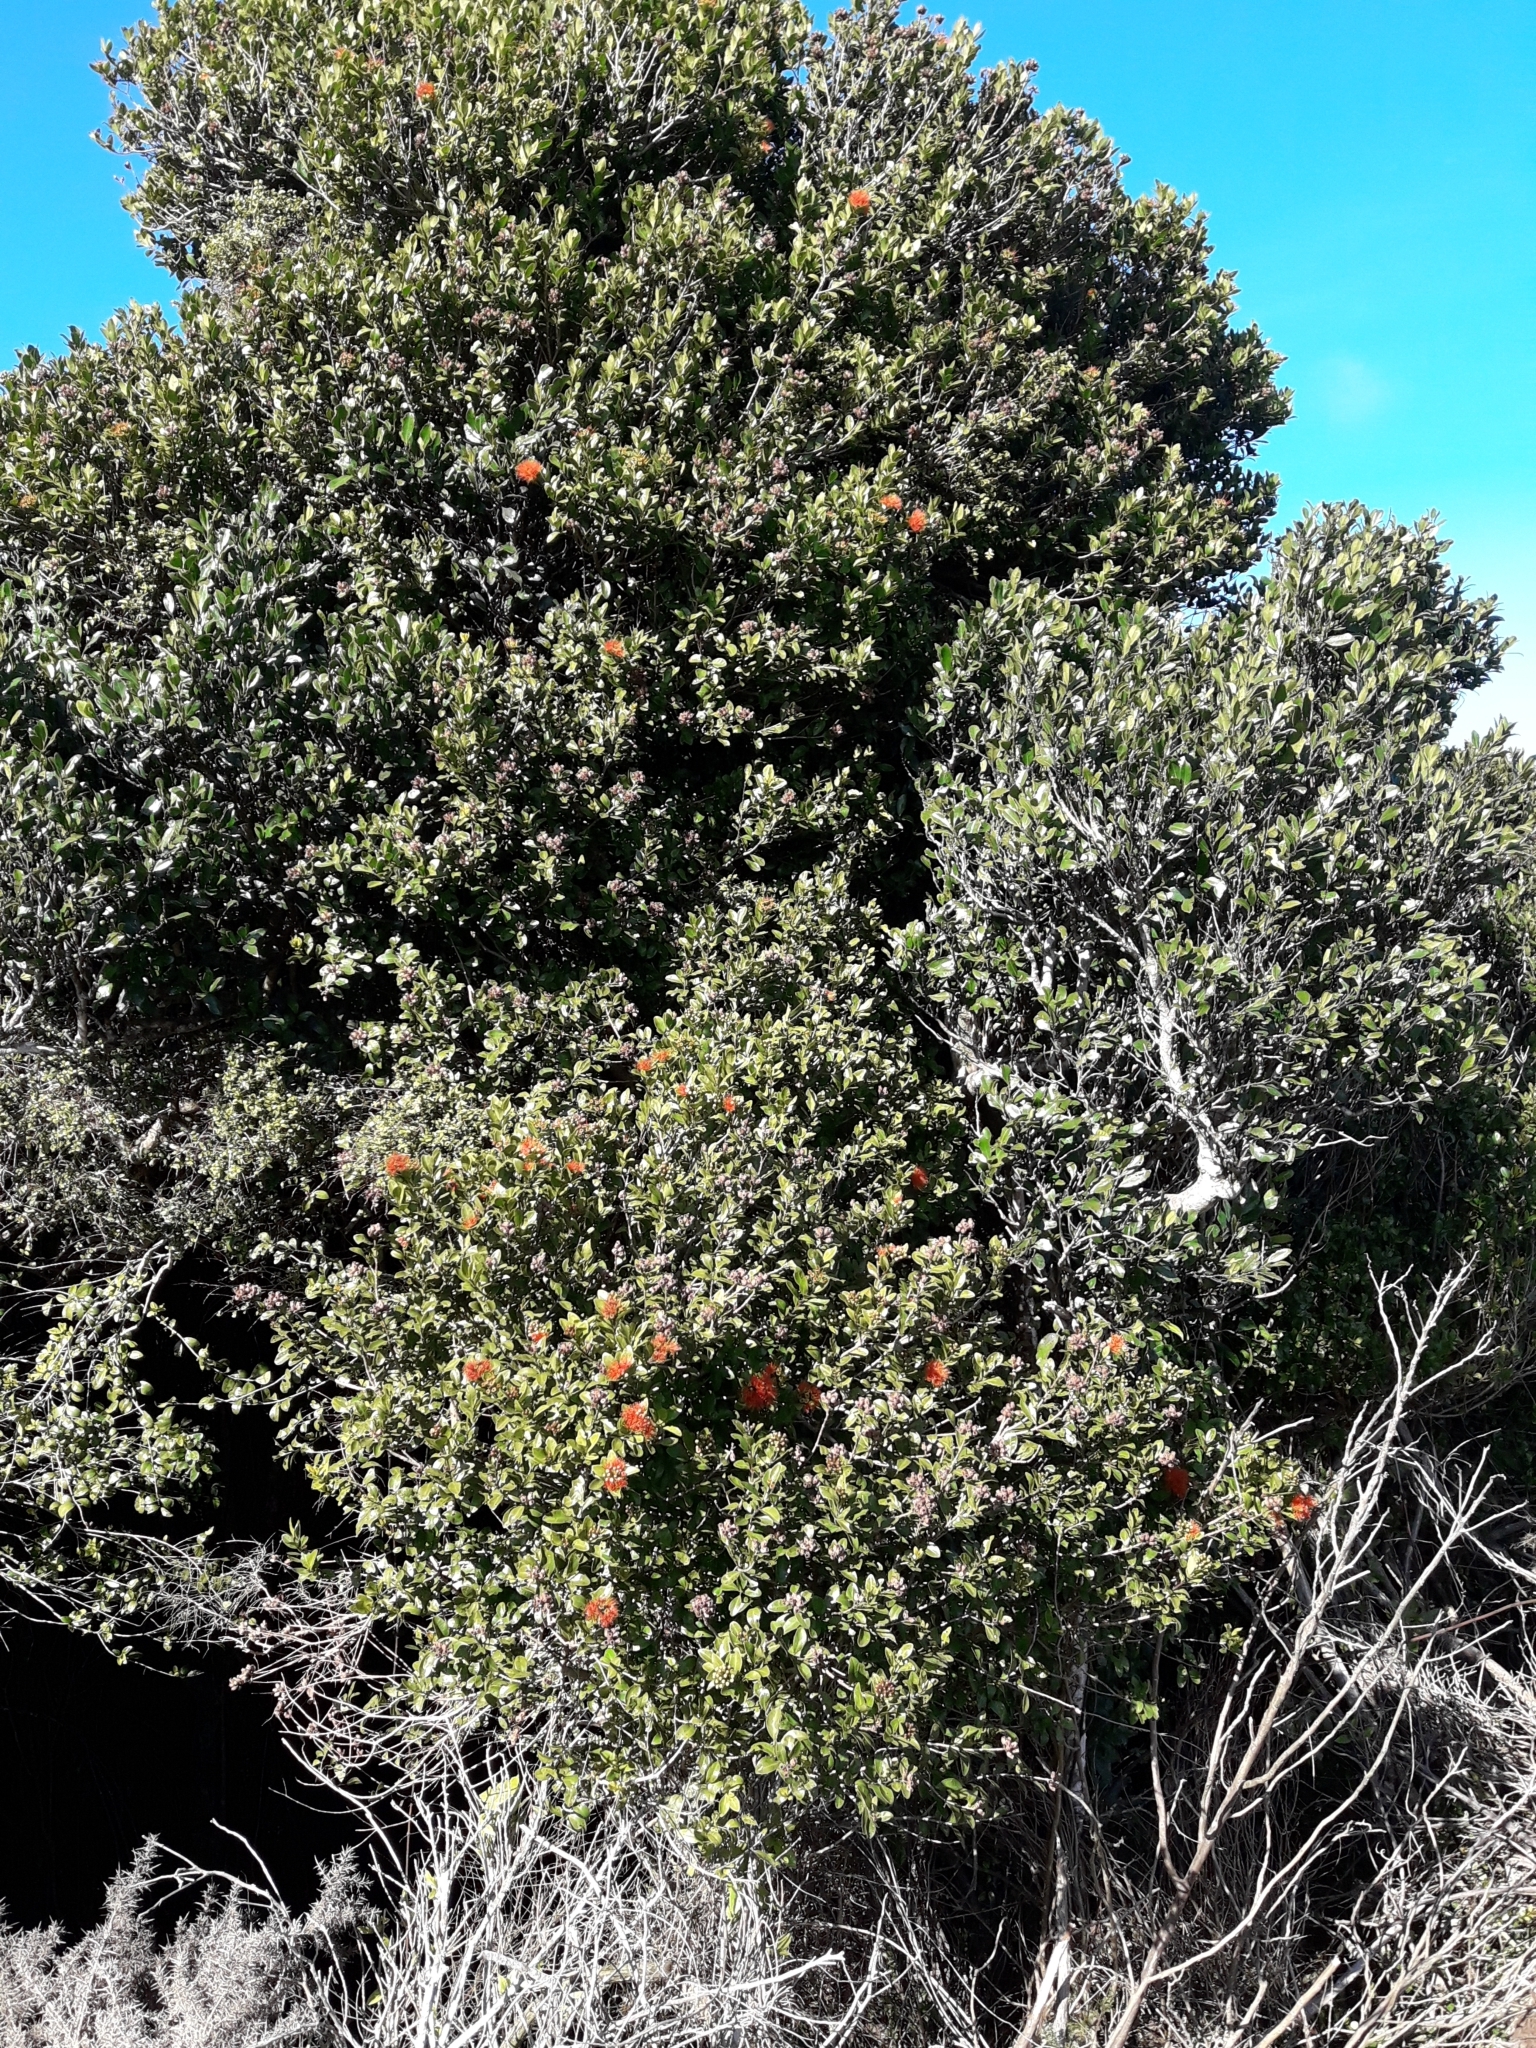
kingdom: Plantae
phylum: Tracheophyta
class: Magnoliopsida
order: Myrtales
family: Myrtaceae
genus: Metrosideros
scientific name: Metrosideros fulgens
